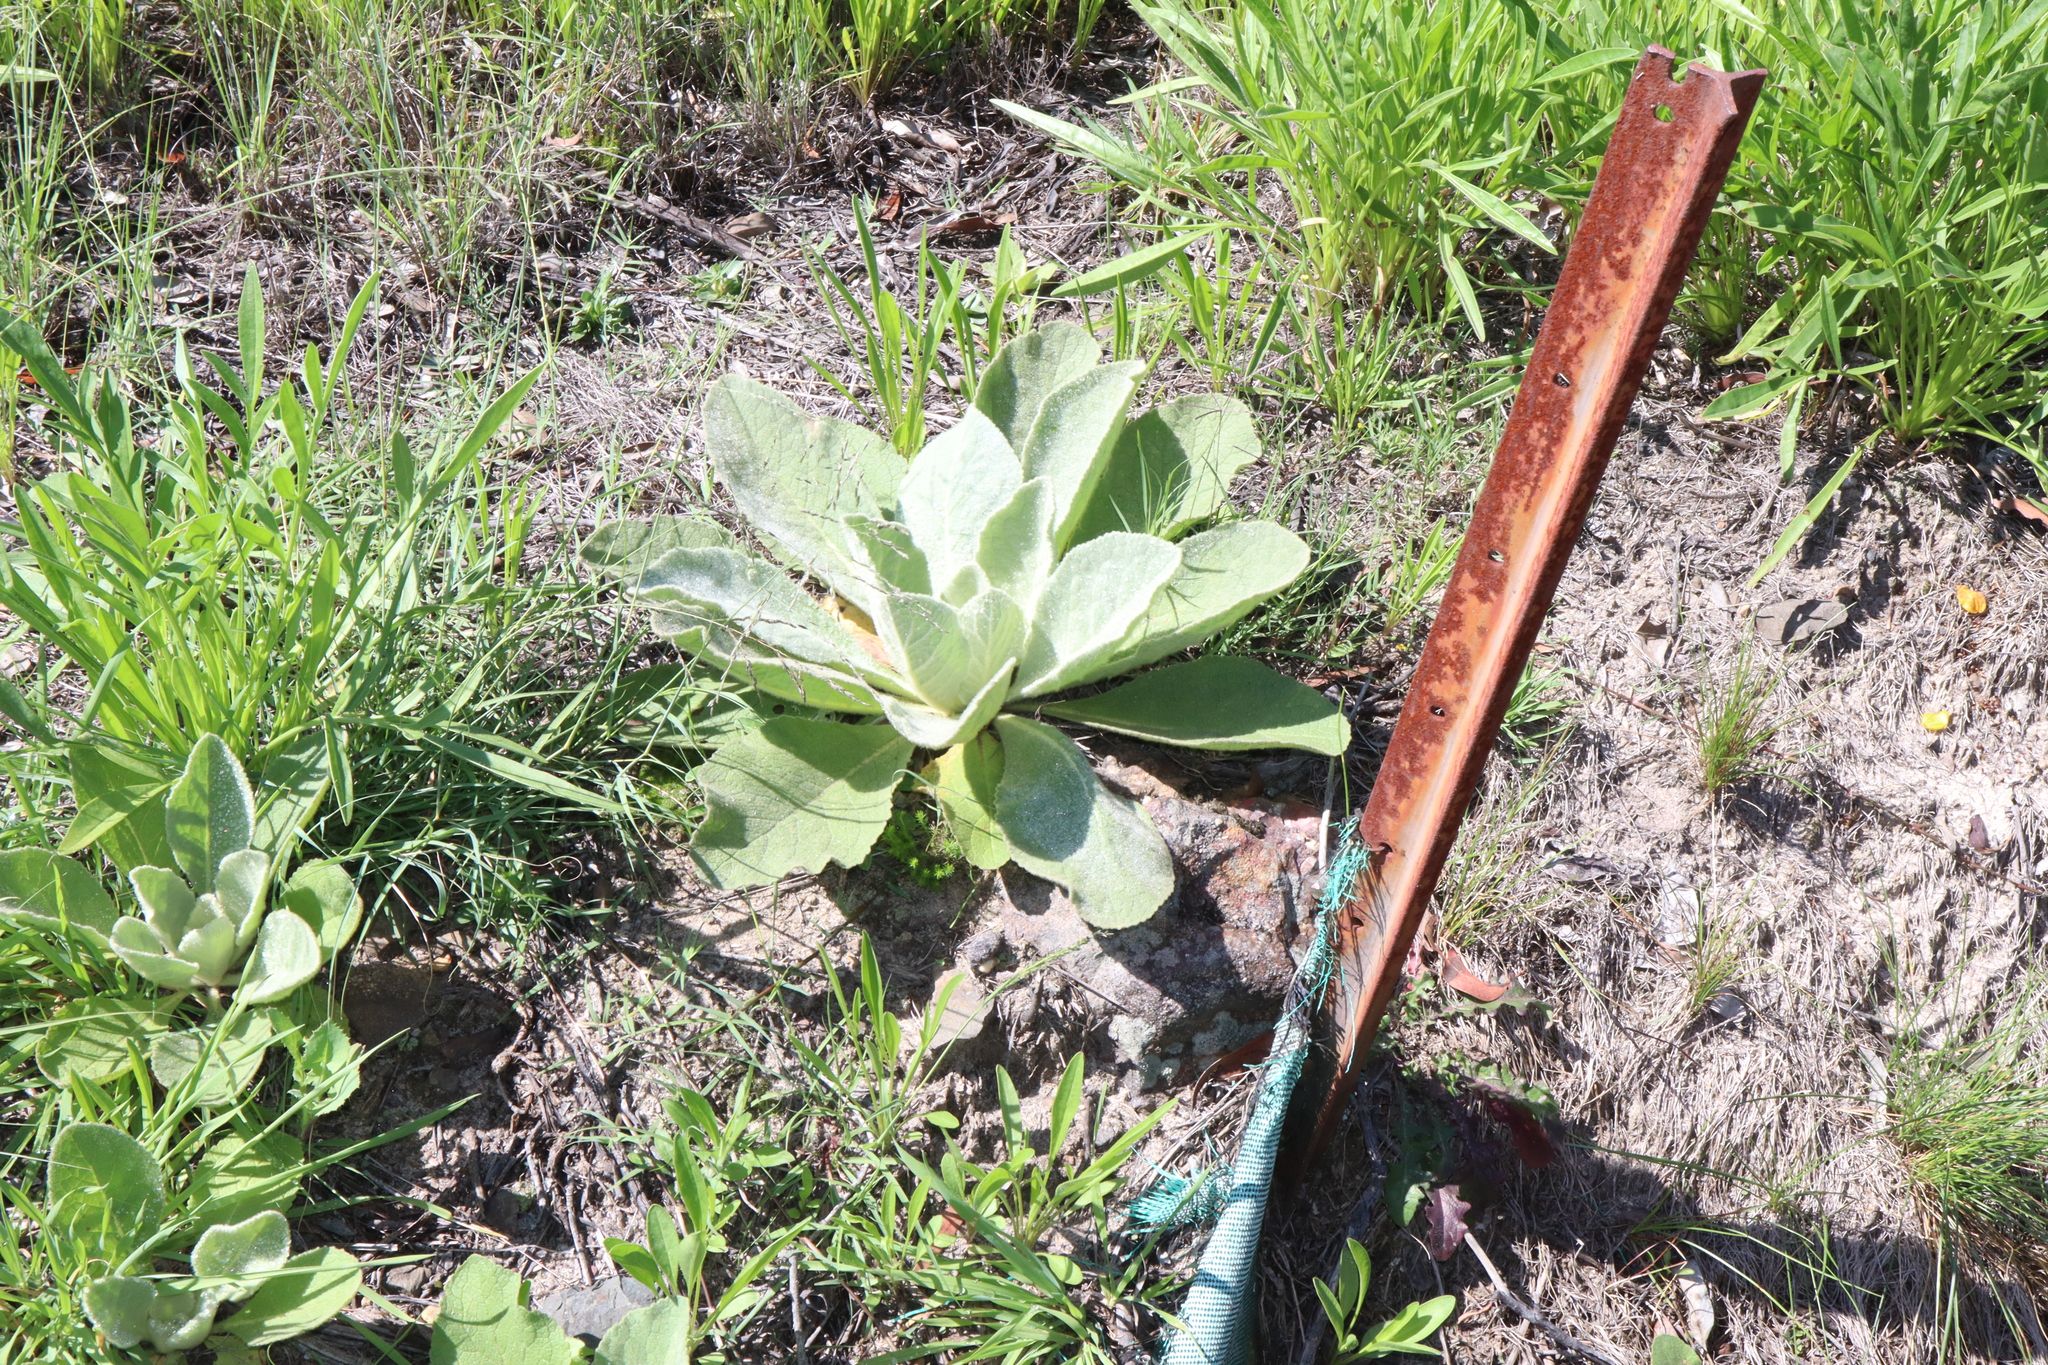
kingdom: Plantae
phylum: Tracheophyta
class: Magnoliopsida
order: Lamiales
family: Scrophulariaceae
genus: Verbascum
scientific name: Verbascum thapsus
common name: Common mullein
